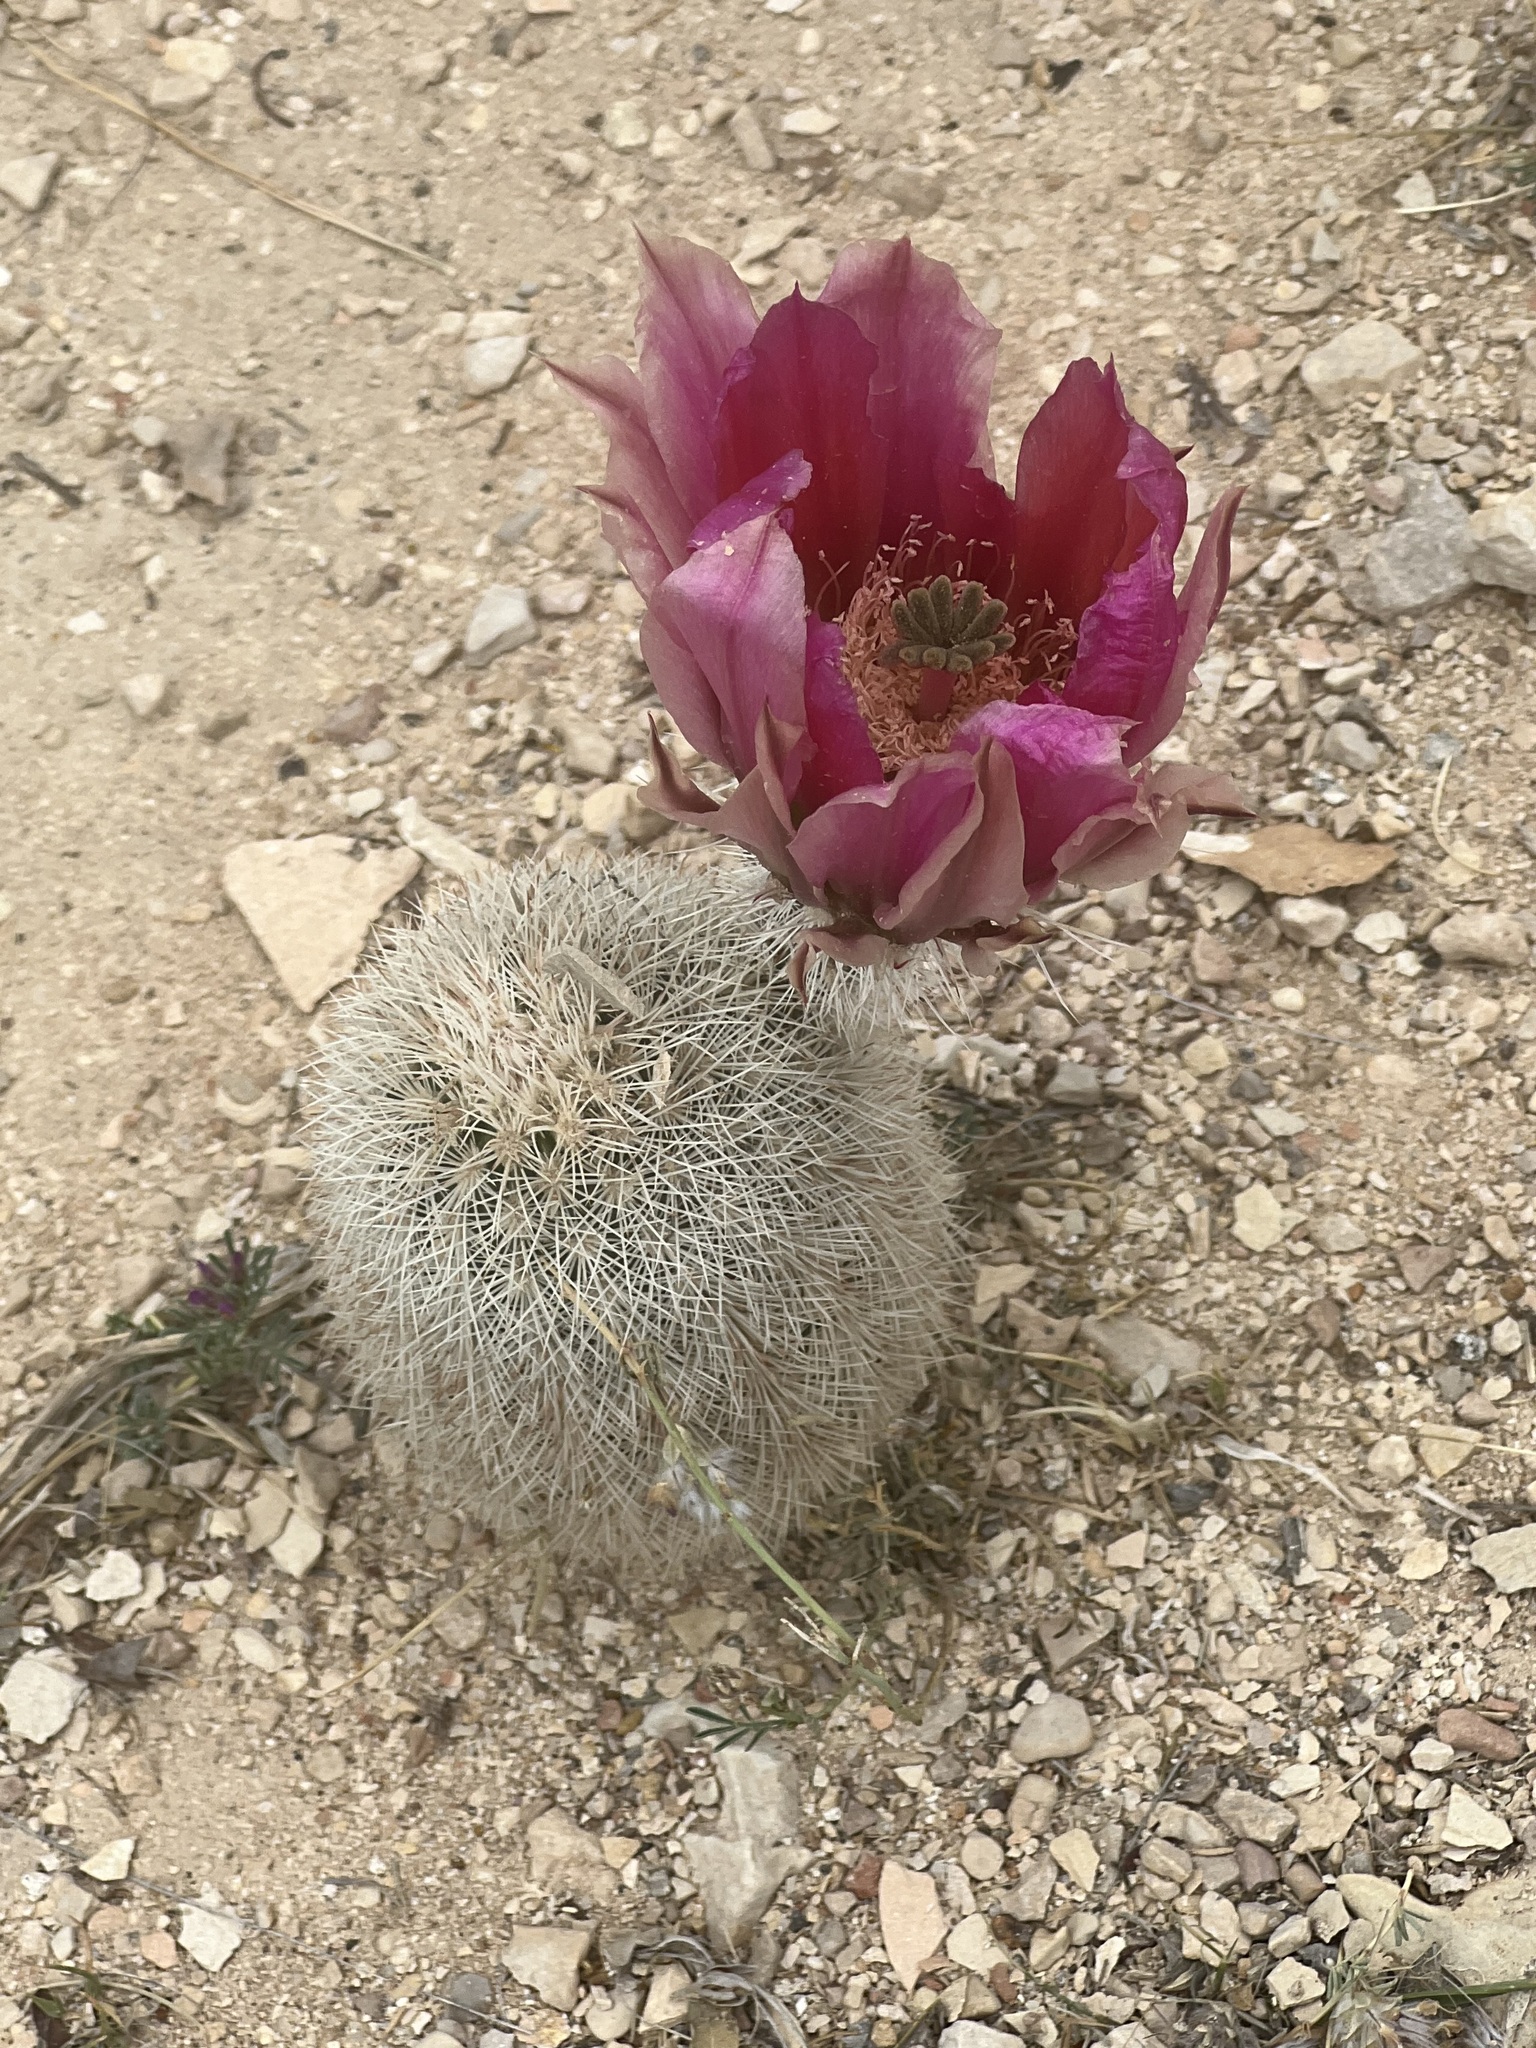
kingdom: Plantae
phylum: Tracheophyta
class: Magnoliopsida
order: Caryophyllales
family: Cactaceae
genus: Echinocereus
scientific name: Echinocereus dasyacanthus
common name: Spiny hedgehog cactus
